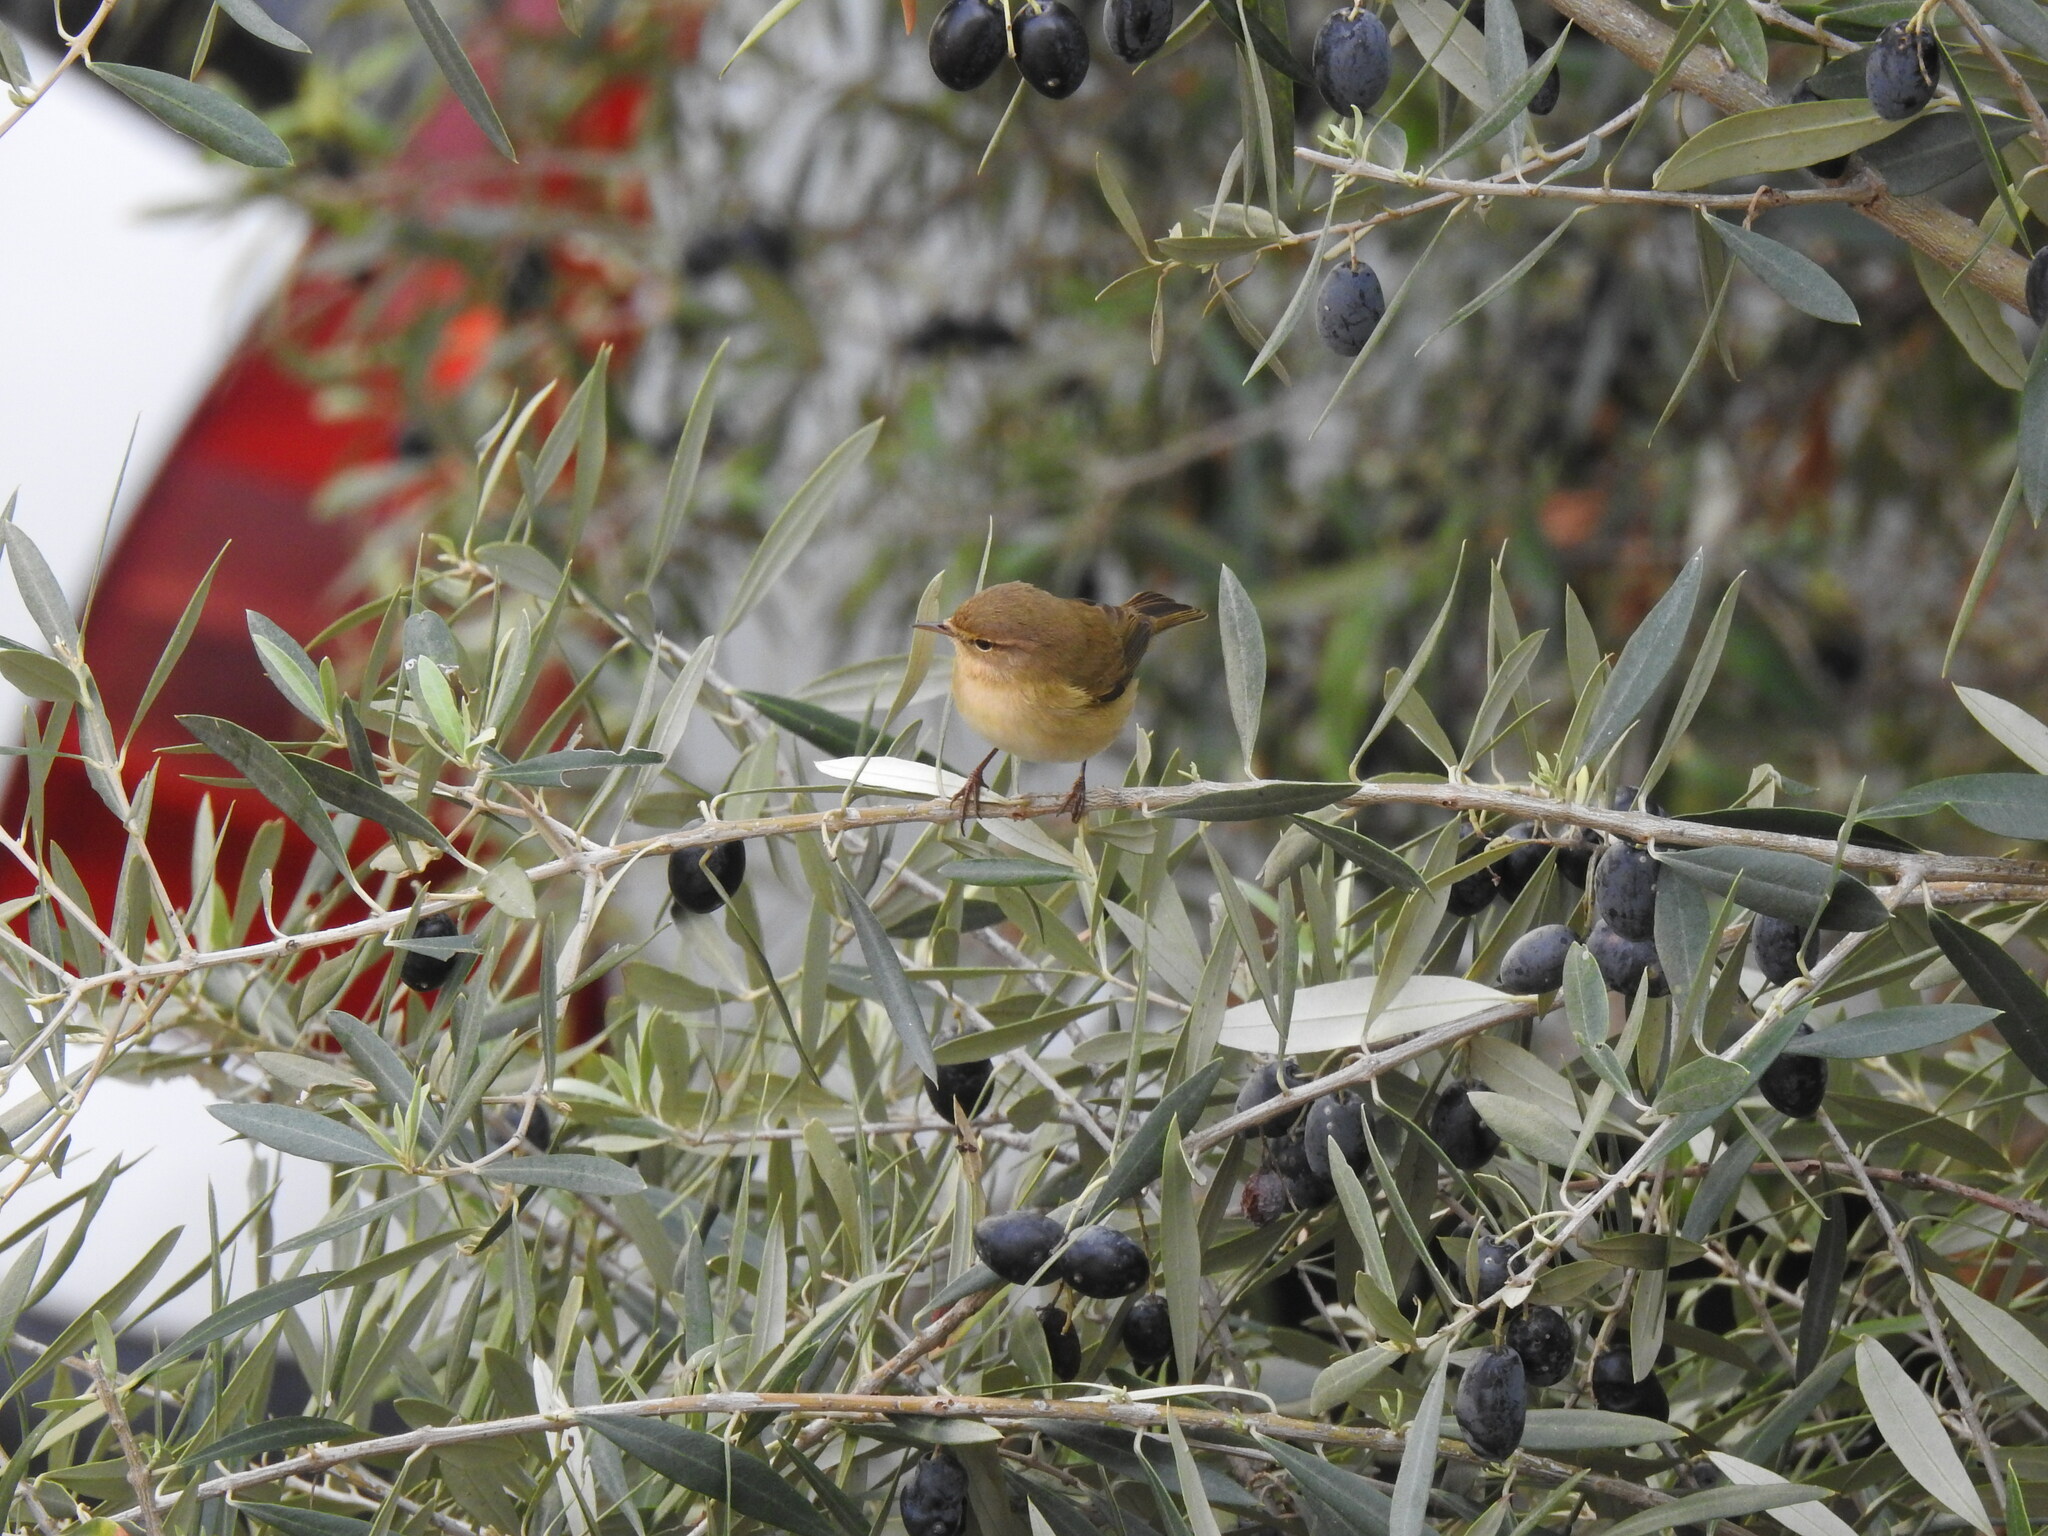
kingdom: Animalia
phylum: Chordata
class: Aves
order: Passeriformes
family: Phylloscopidae
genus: Phylloscopus
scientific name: Phylloscopus collybita
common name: Common chiffchaff
